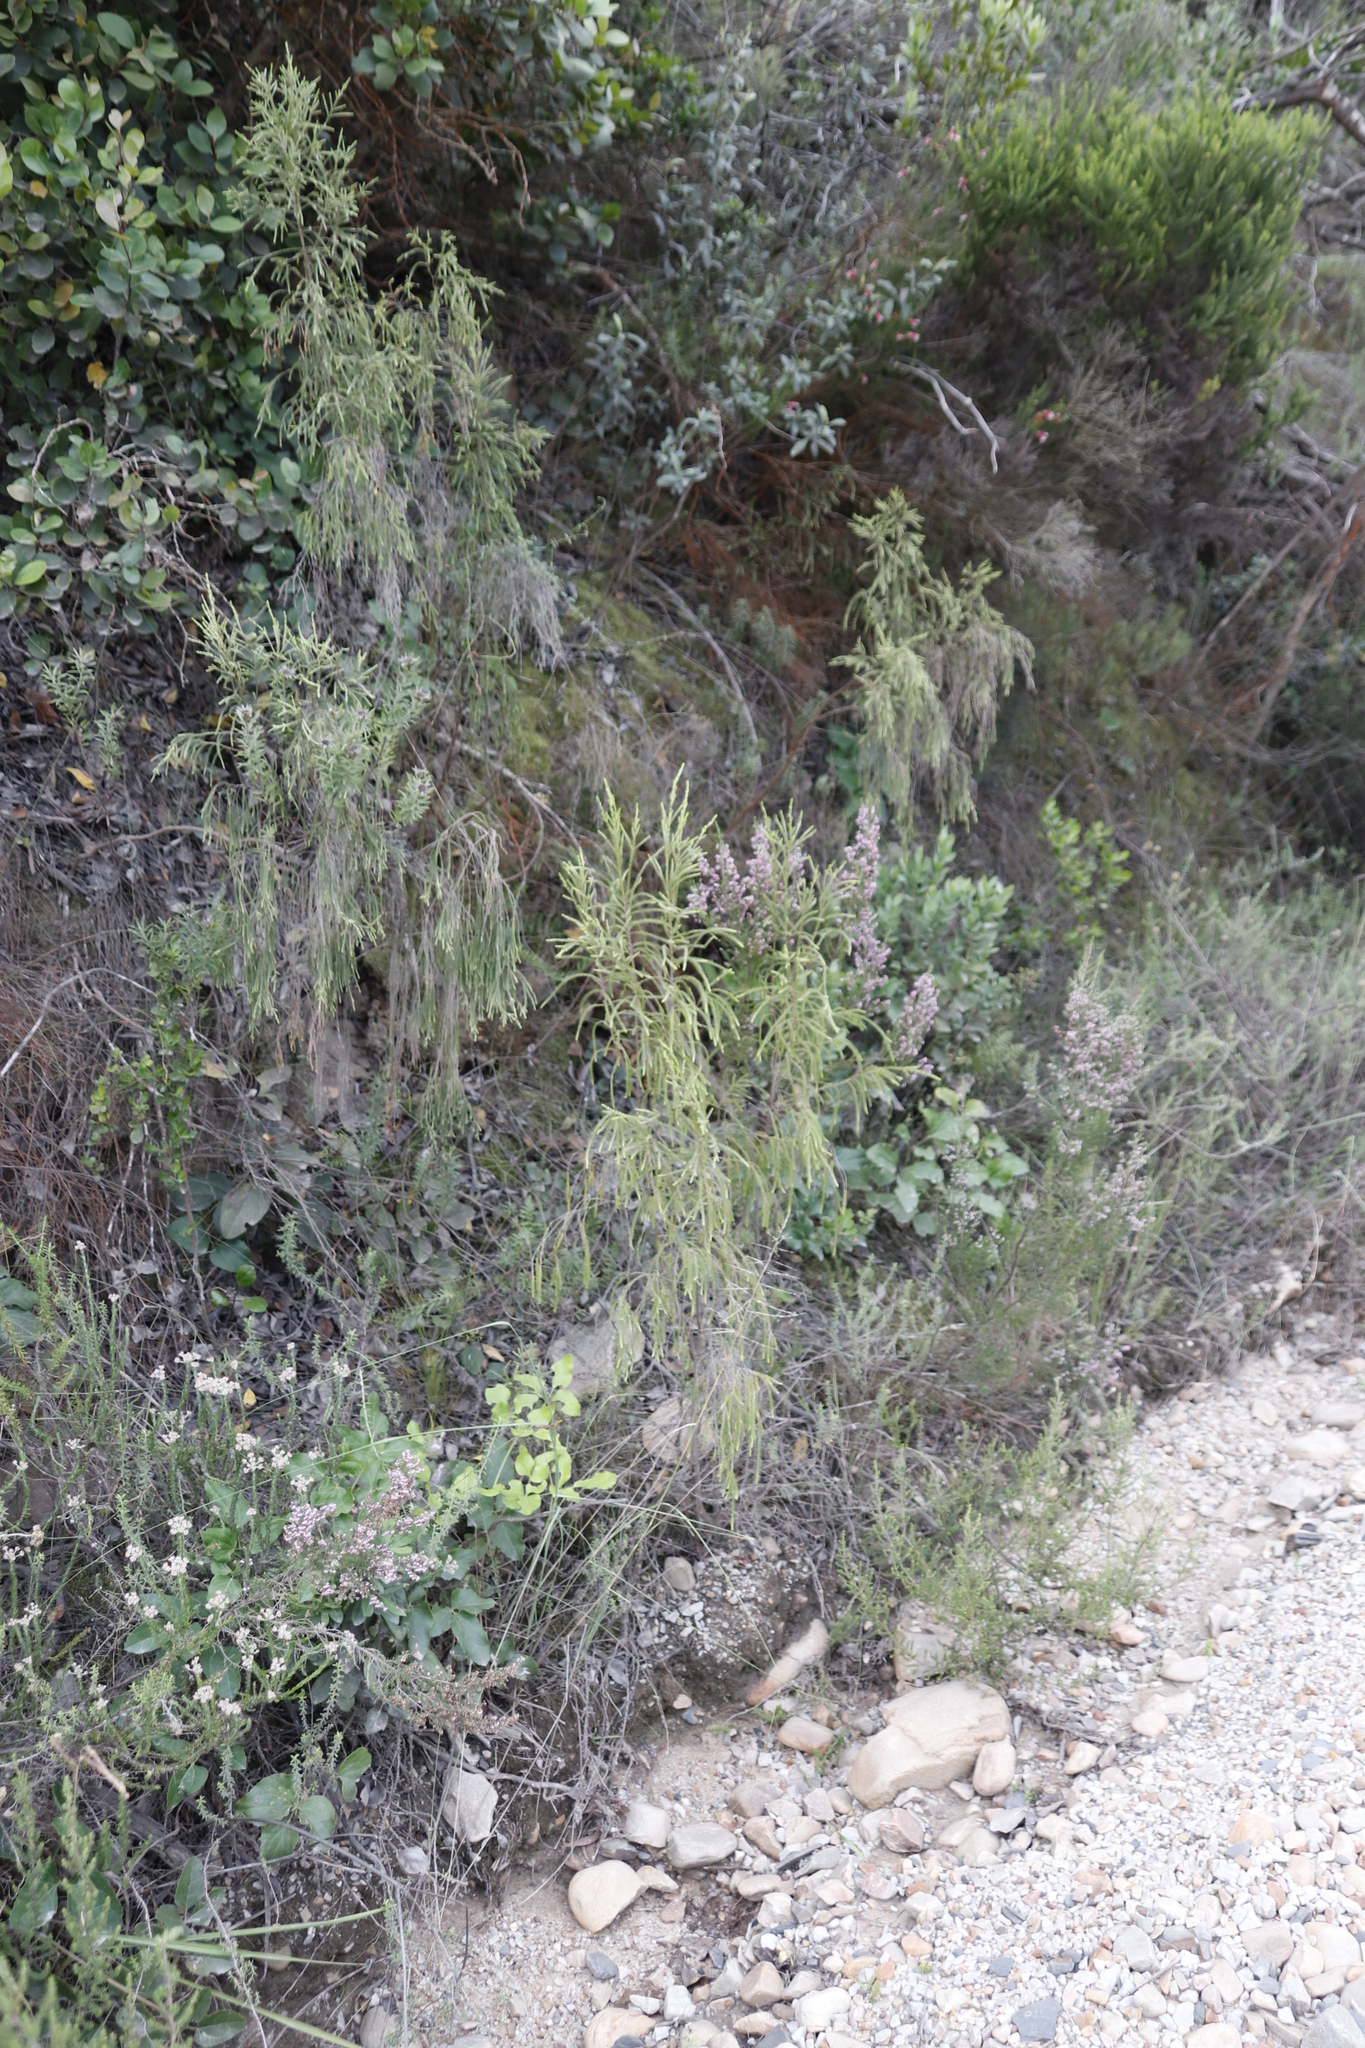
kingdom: Plantae
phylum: Tracheophyta
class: Magnoliopsida
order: Malvales
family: Thymelaeaceae
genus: Passerina
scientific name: Passerina falcifolia
